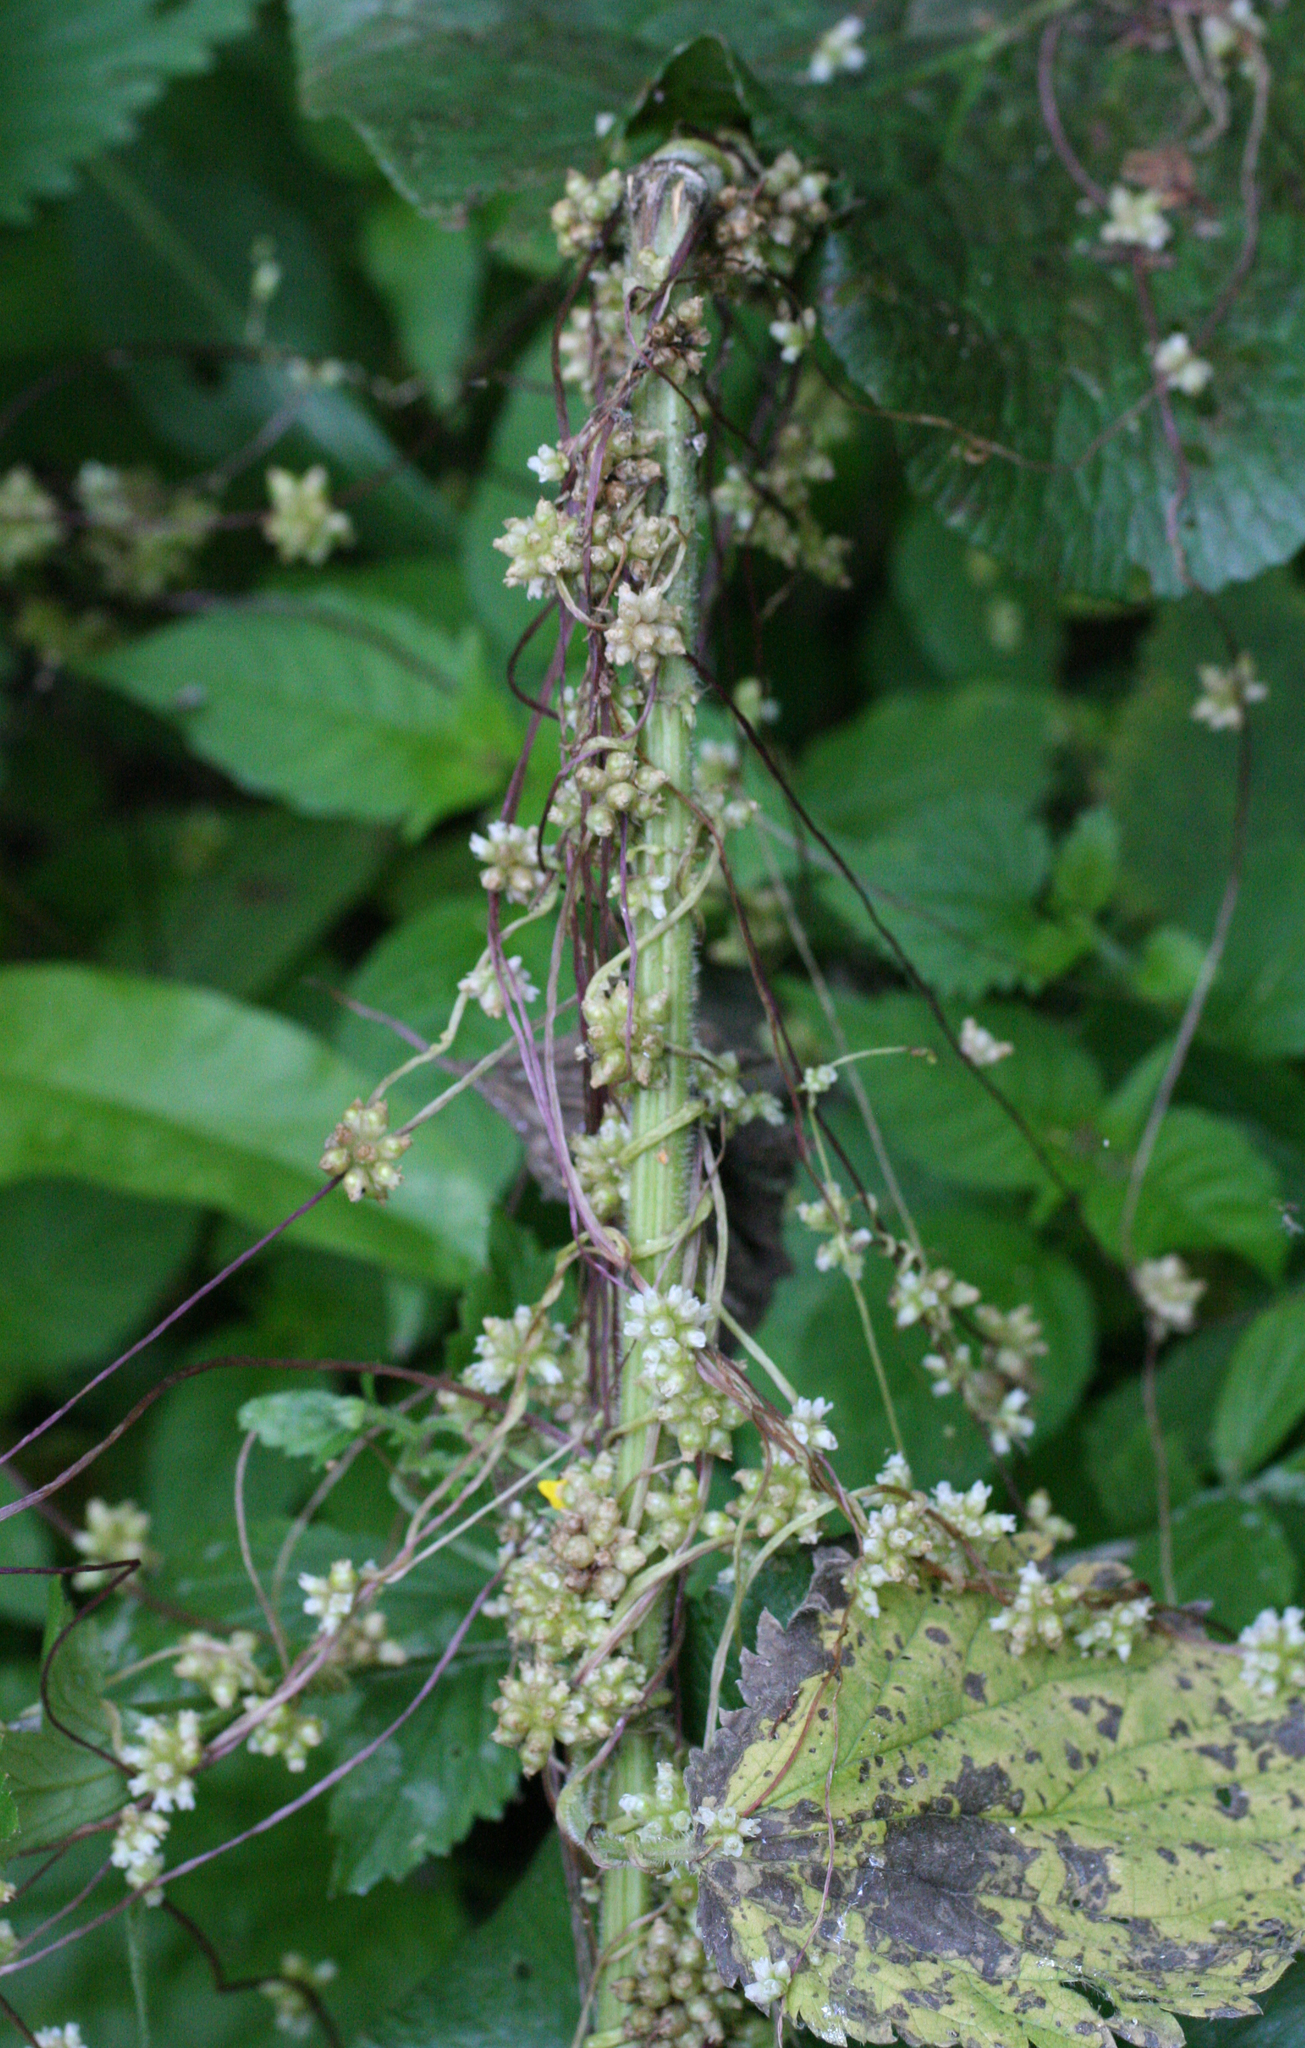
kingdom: Plantae
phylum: Tracheophyta
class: Magnoliopsida
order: Solanales
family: Convolvulaceae
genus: Cuscuta
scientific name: Cuscuta europaea
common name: Greater dodder
